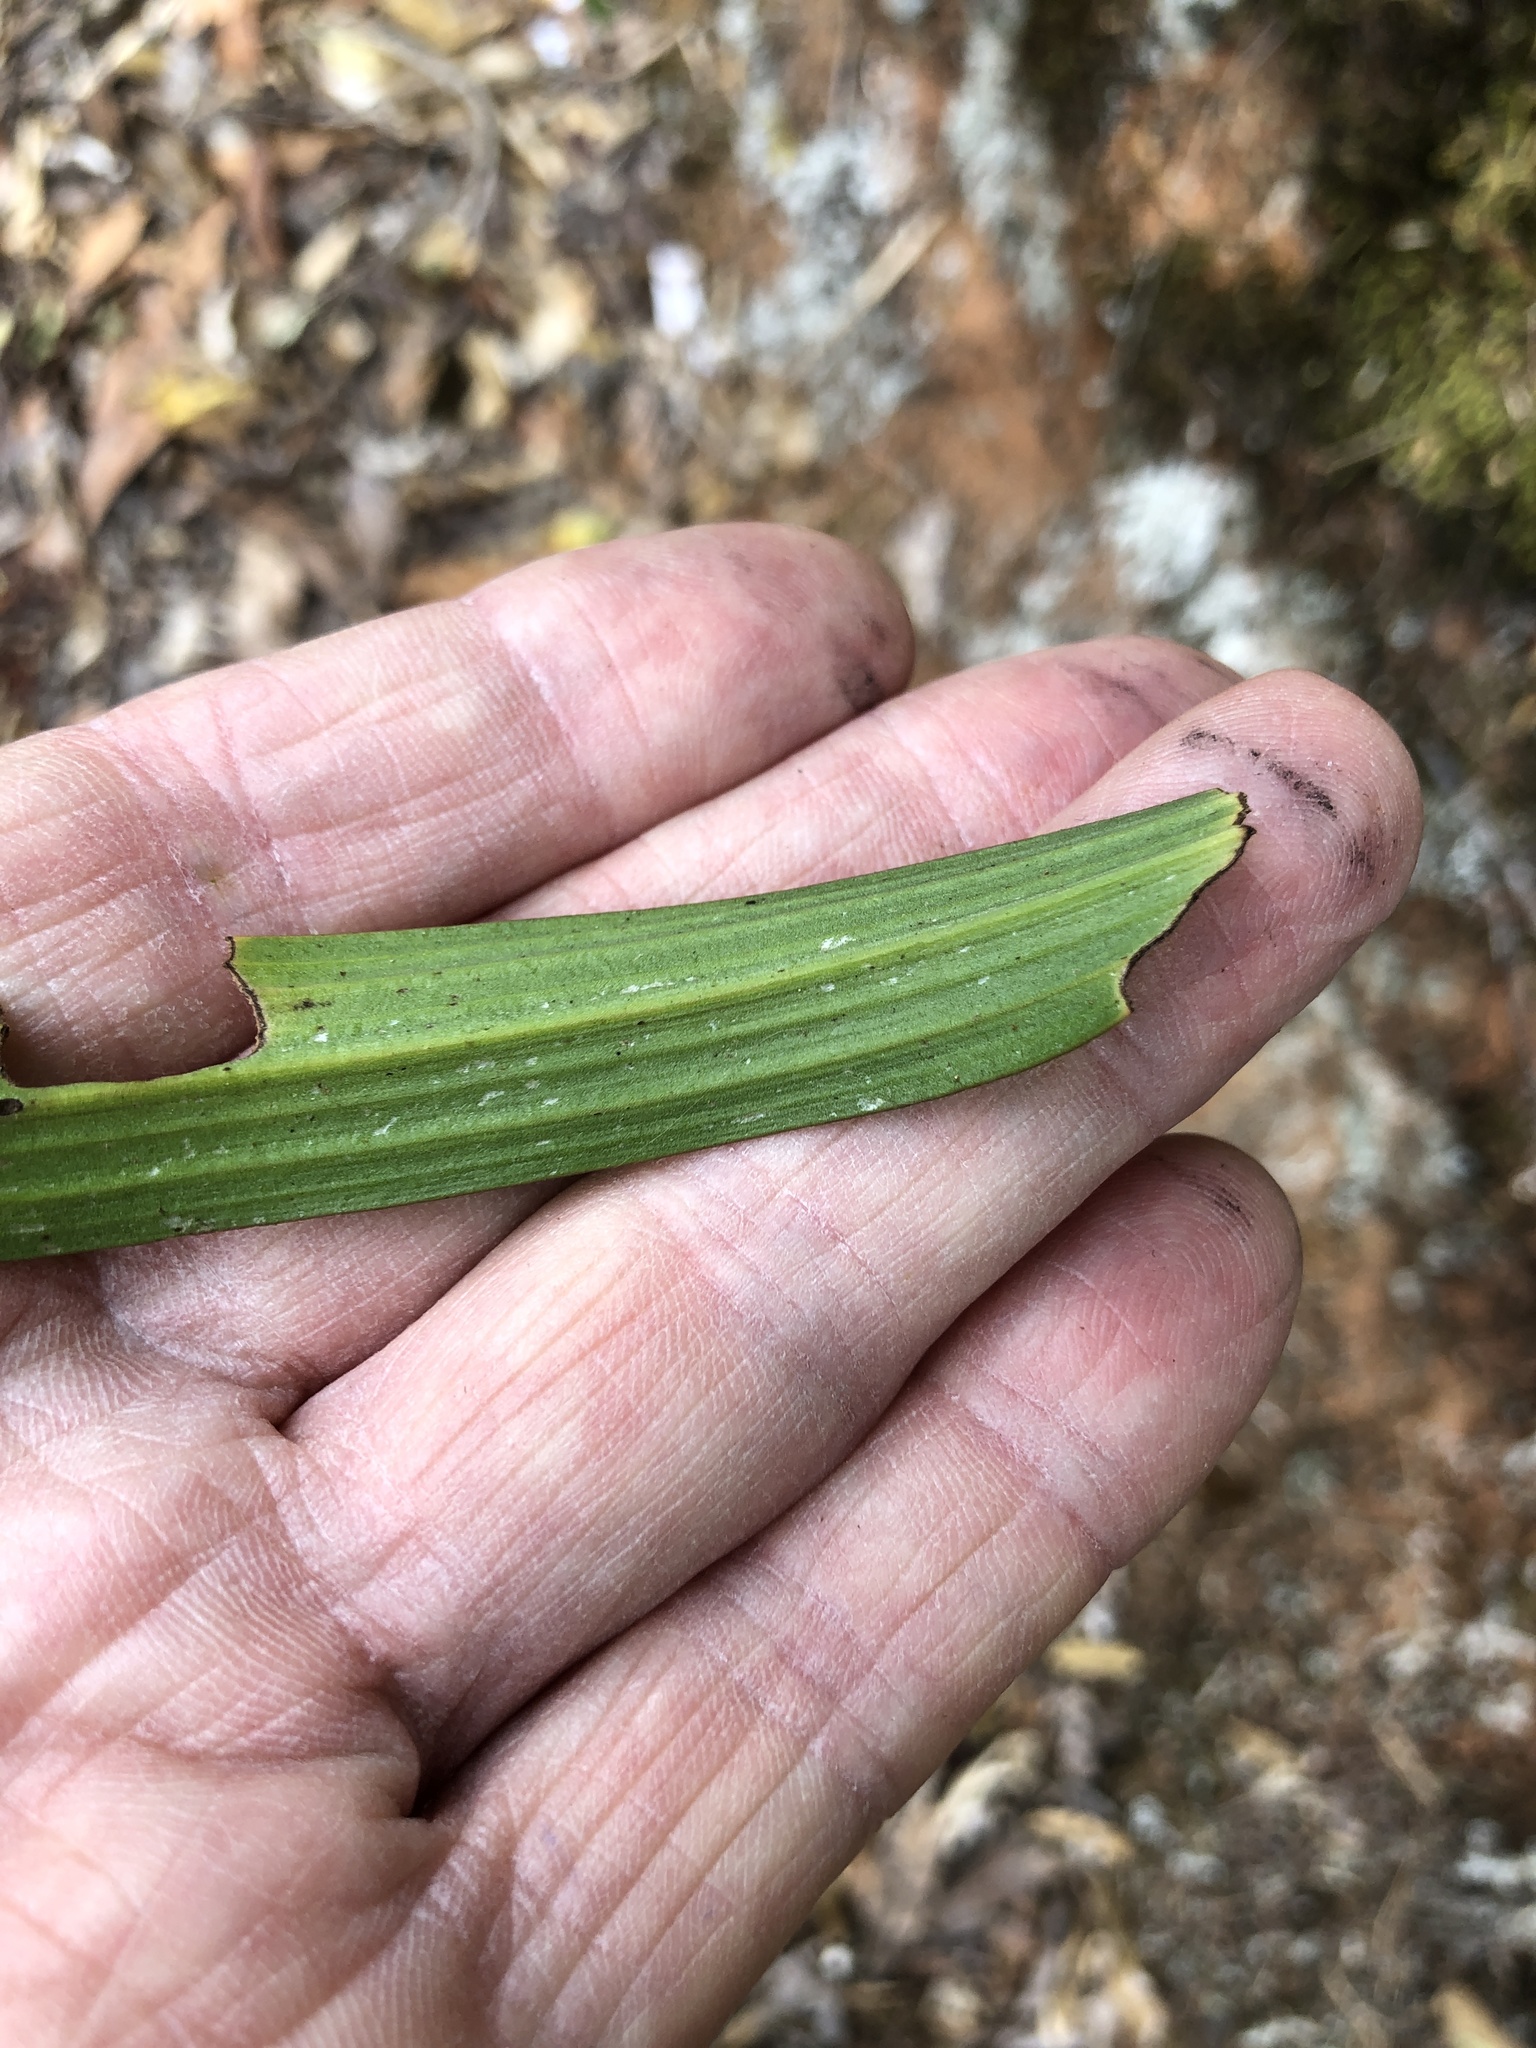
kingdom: Plantae
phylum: Tracheophyta
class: Liliopsida
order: Asparagales
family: Orchidaceae
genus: Thelymitra
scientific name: Thelymitra longifolia
